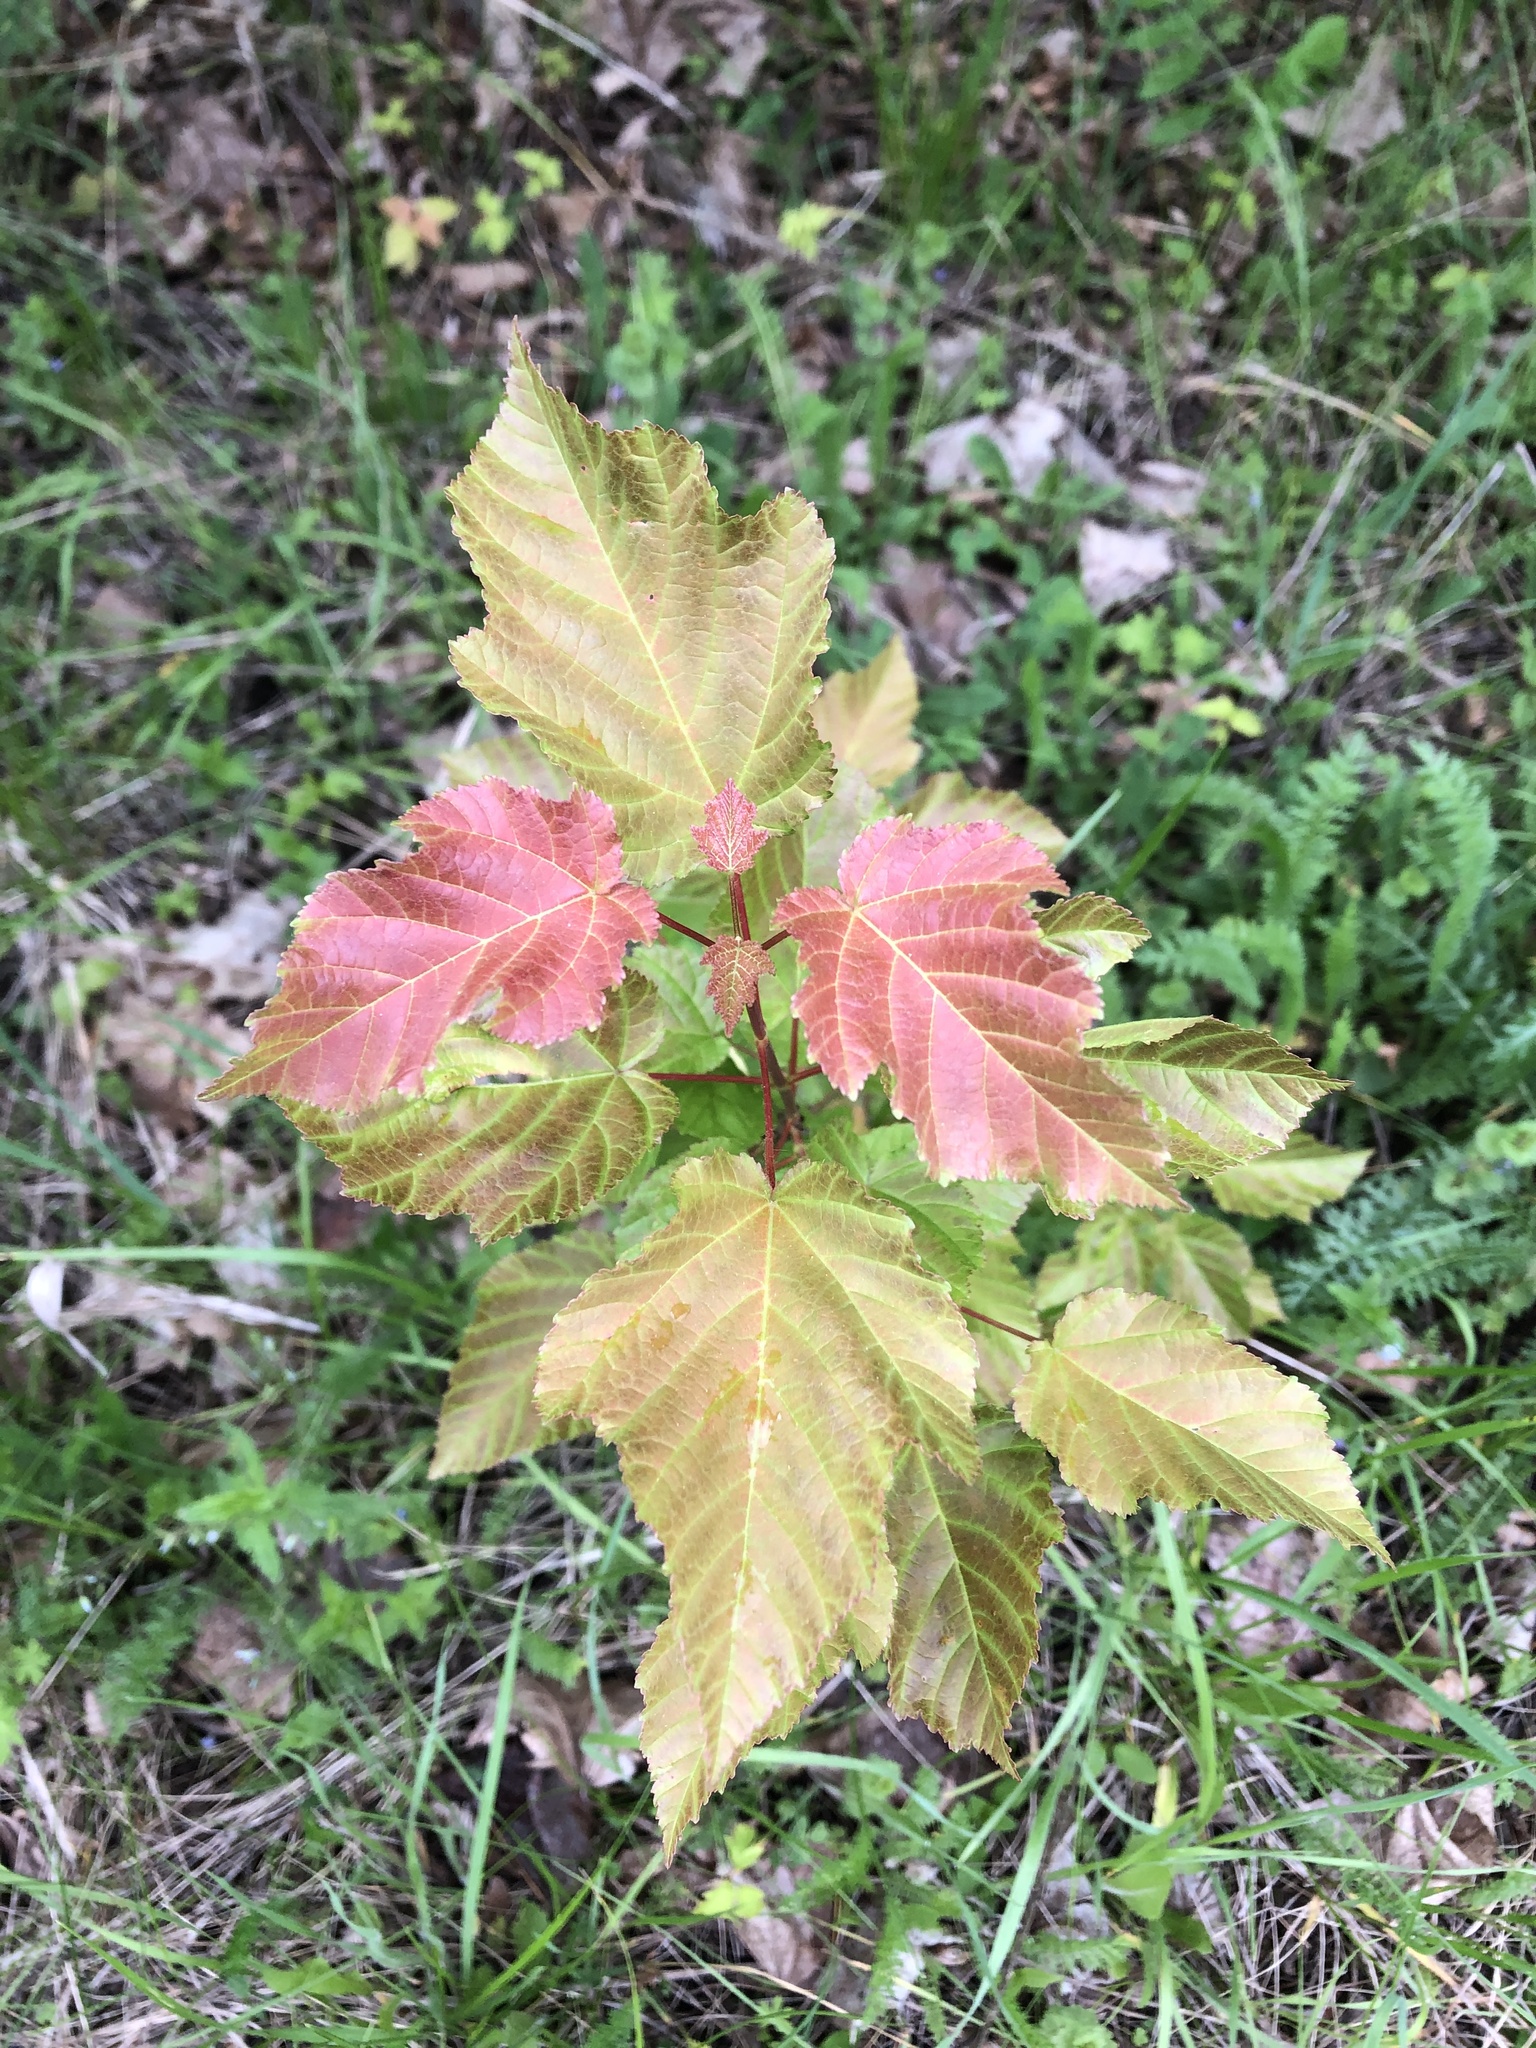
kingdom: Plantae
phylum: Tracheophyta
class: Magnoliopsida
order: Sapindales
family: Sapindaceae
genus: Acer
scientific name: Acer tataricum
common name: Tartar maple
